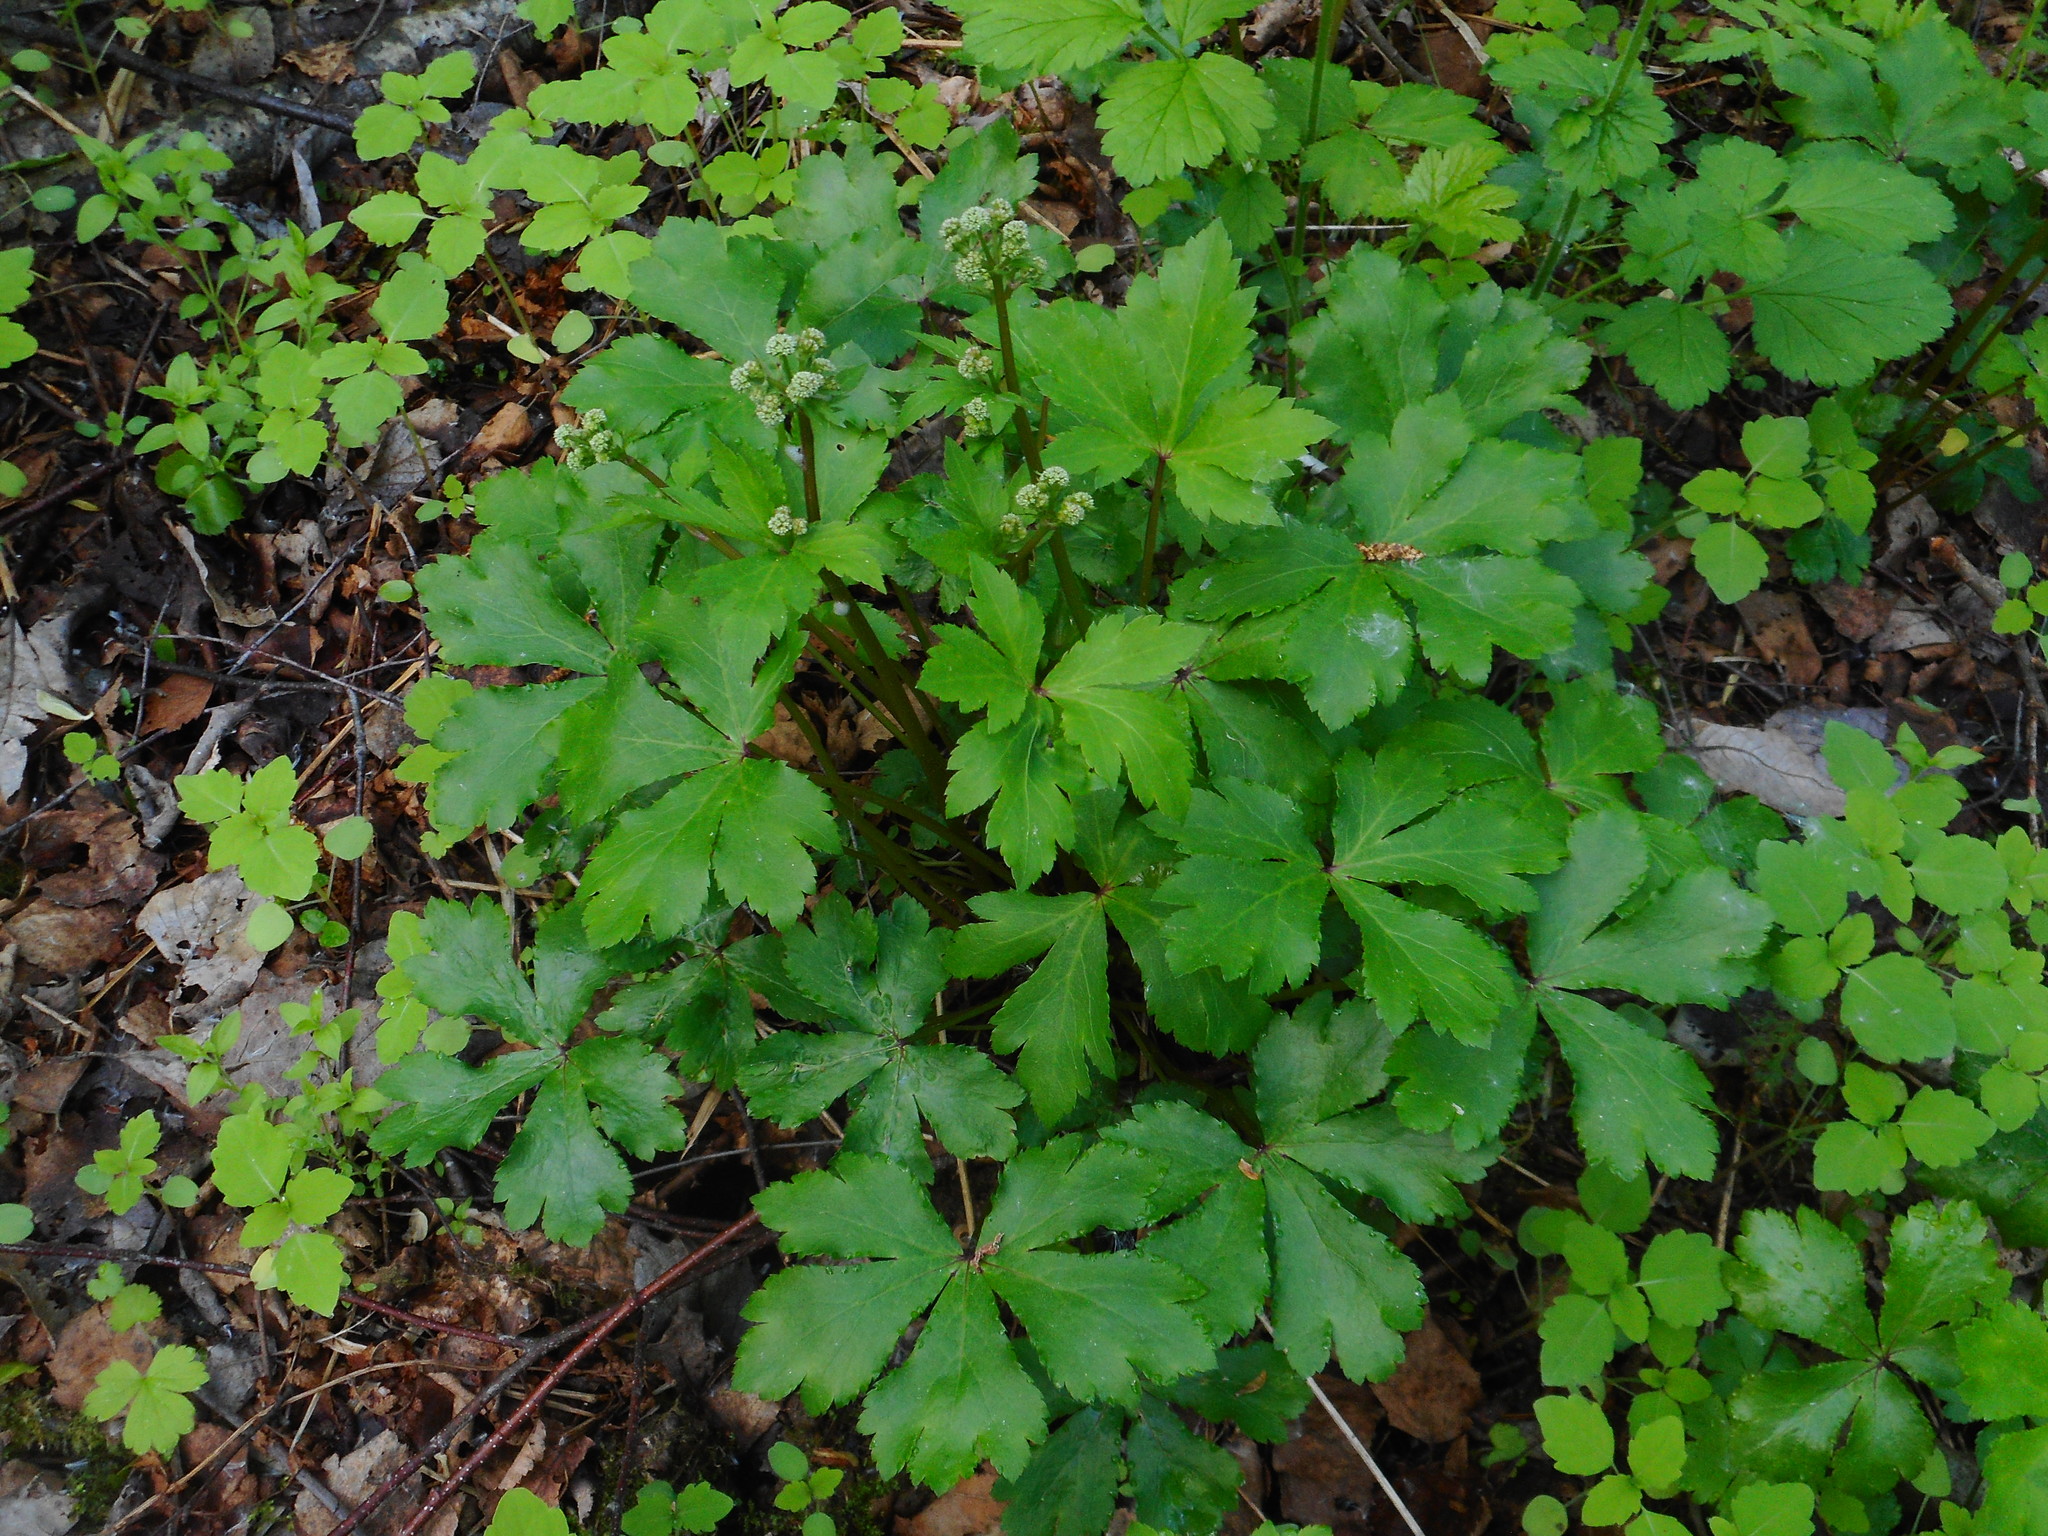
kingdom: Plantae
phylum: Tracheophyta
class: Magnoliopsida
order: Apiales
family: Apiaceae
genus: Sanicula
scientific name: Sanicula europaea
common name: Sanicle
